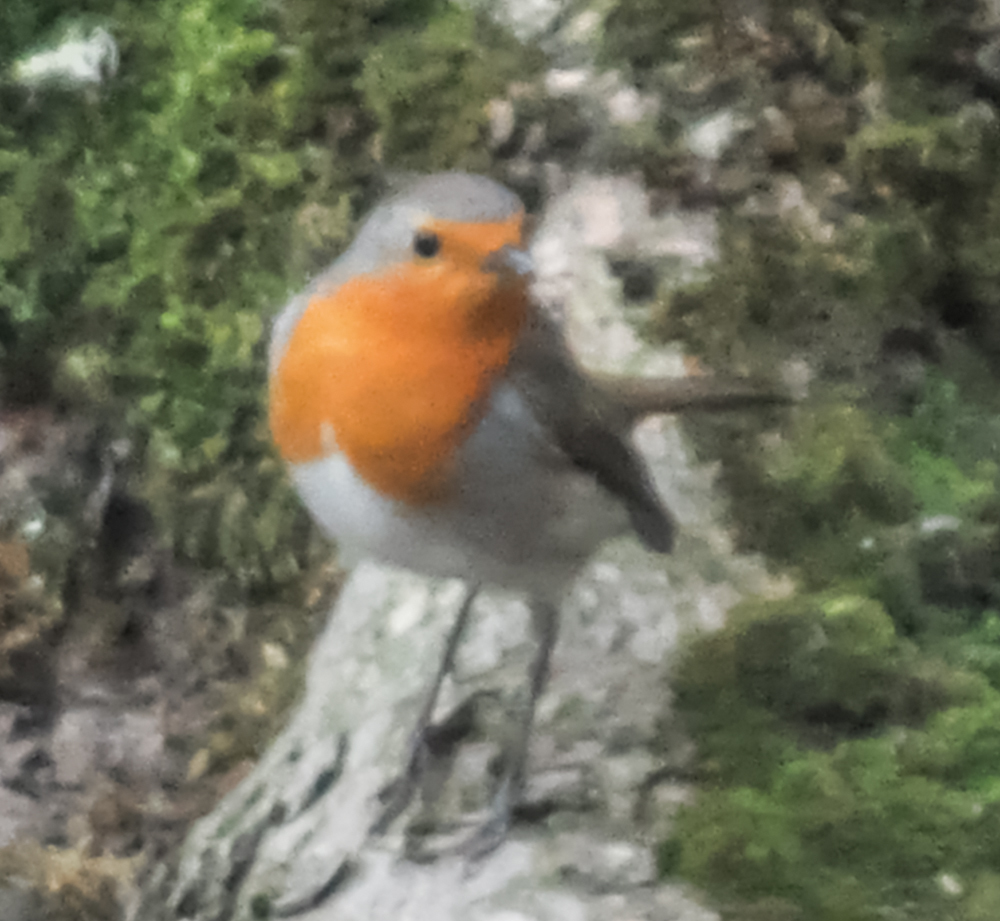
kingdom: Animalia
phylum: Chordata
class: Aves
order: Passeriformes
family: Muscicapidae
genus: Erithacus
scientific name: Erithacus rubecula
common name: European robin
